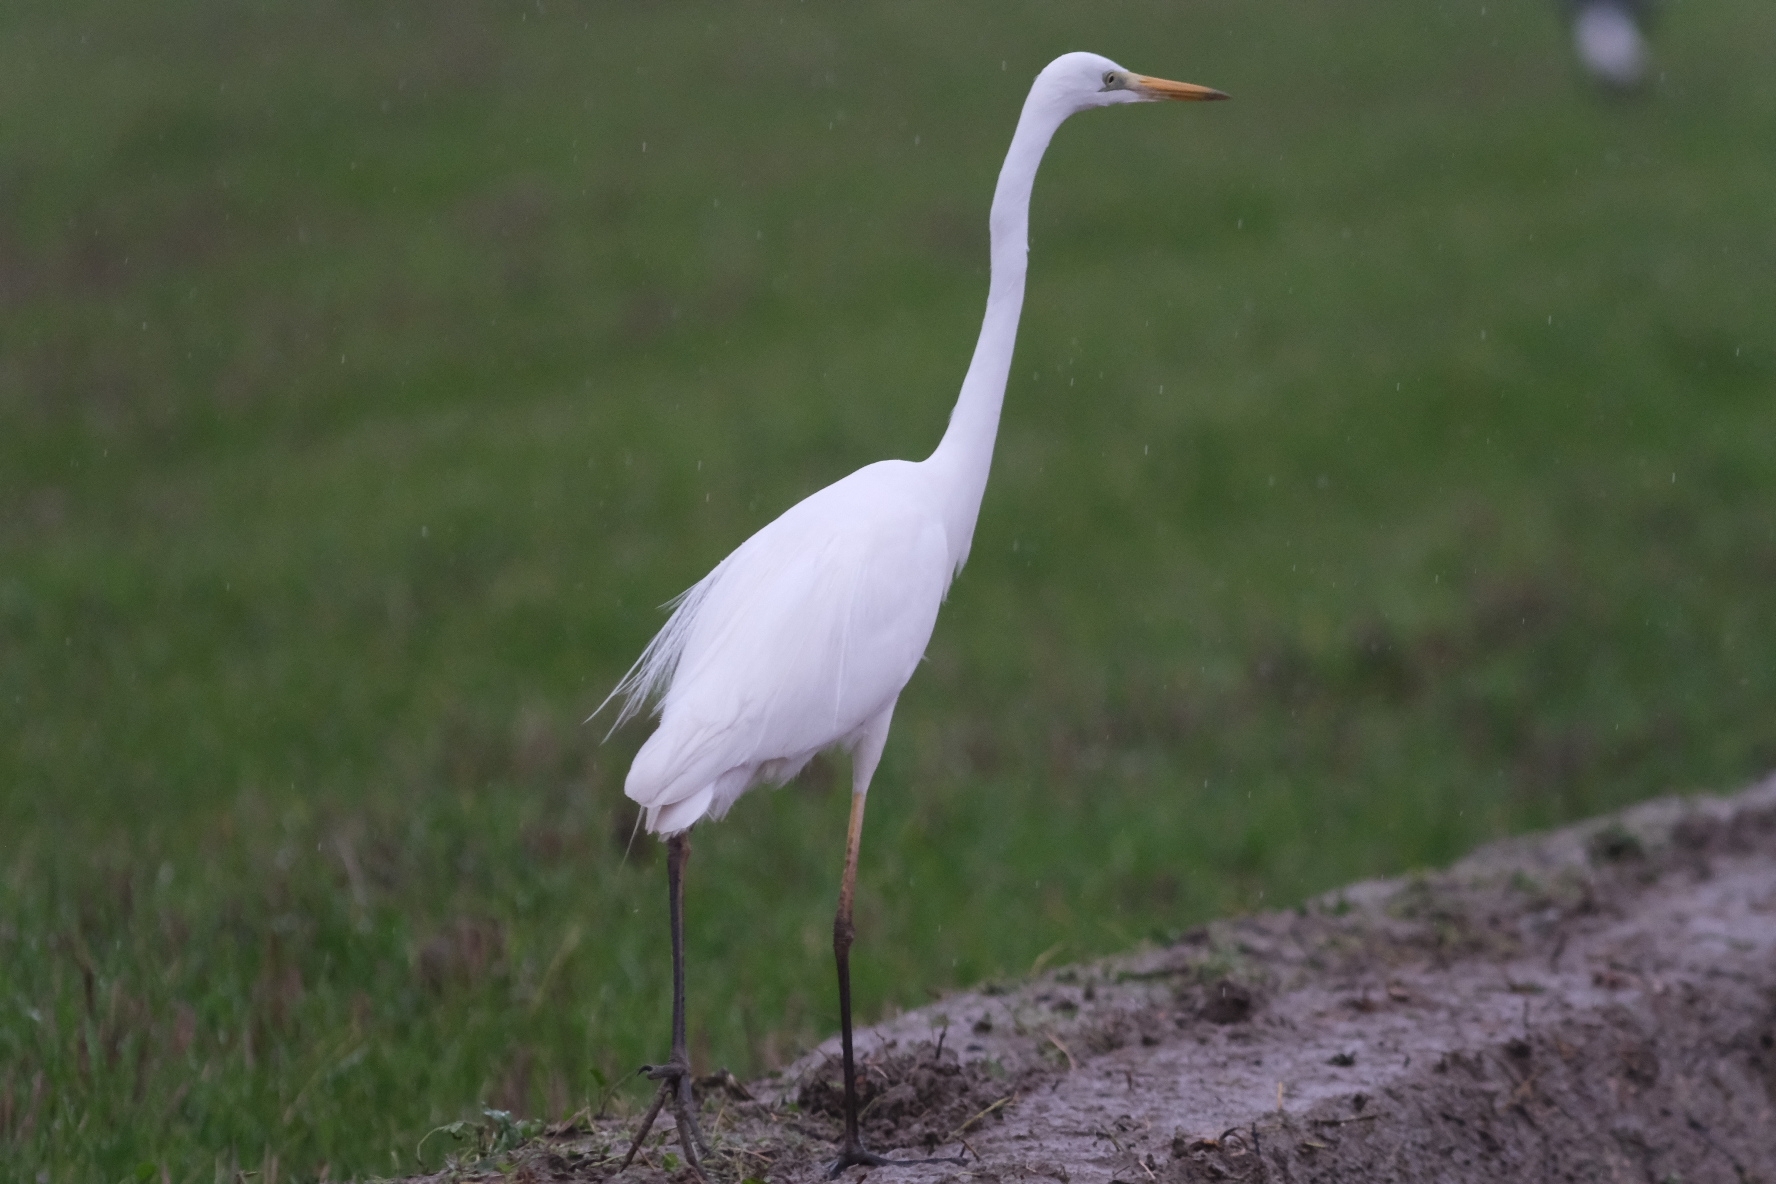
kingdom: Animalia
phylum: Chordata
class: Aves
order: Pelecaniformes
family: Ardeidae
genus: Ardea
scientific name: Ardea alba
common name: Great egret
